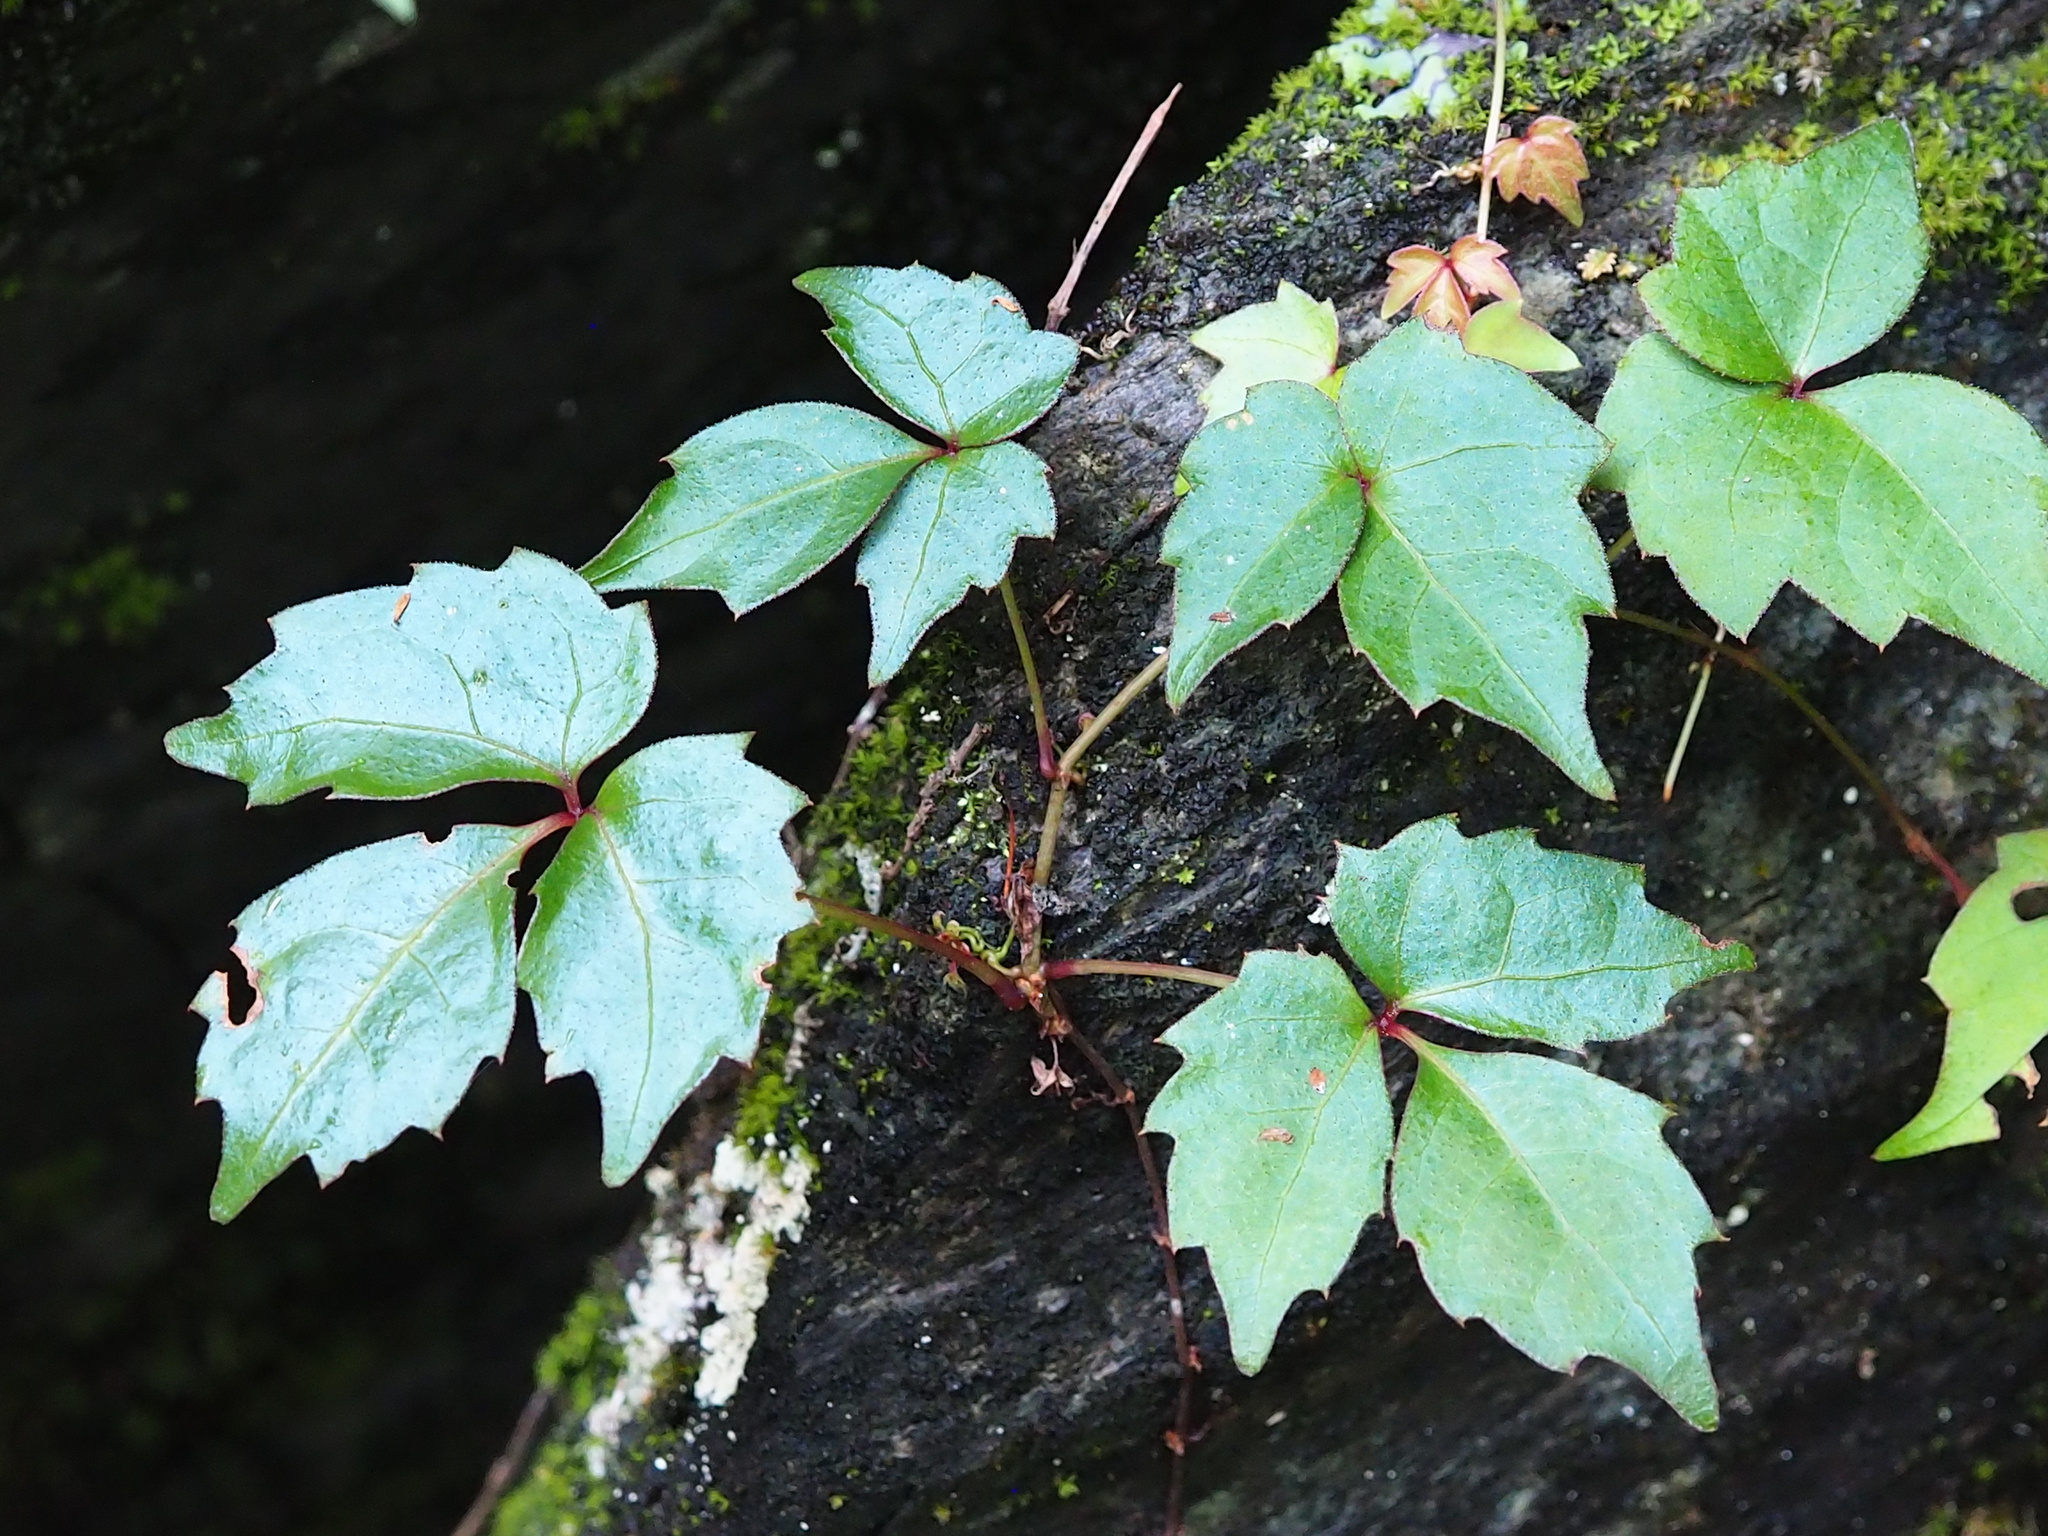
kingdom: Plantae
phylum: Tracheophyta
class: Magnoliopsida
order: Vitales
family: Vitaceae
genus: Parthenocissus
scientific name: Parthenocissus tricuspidata
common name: Boston ivy
